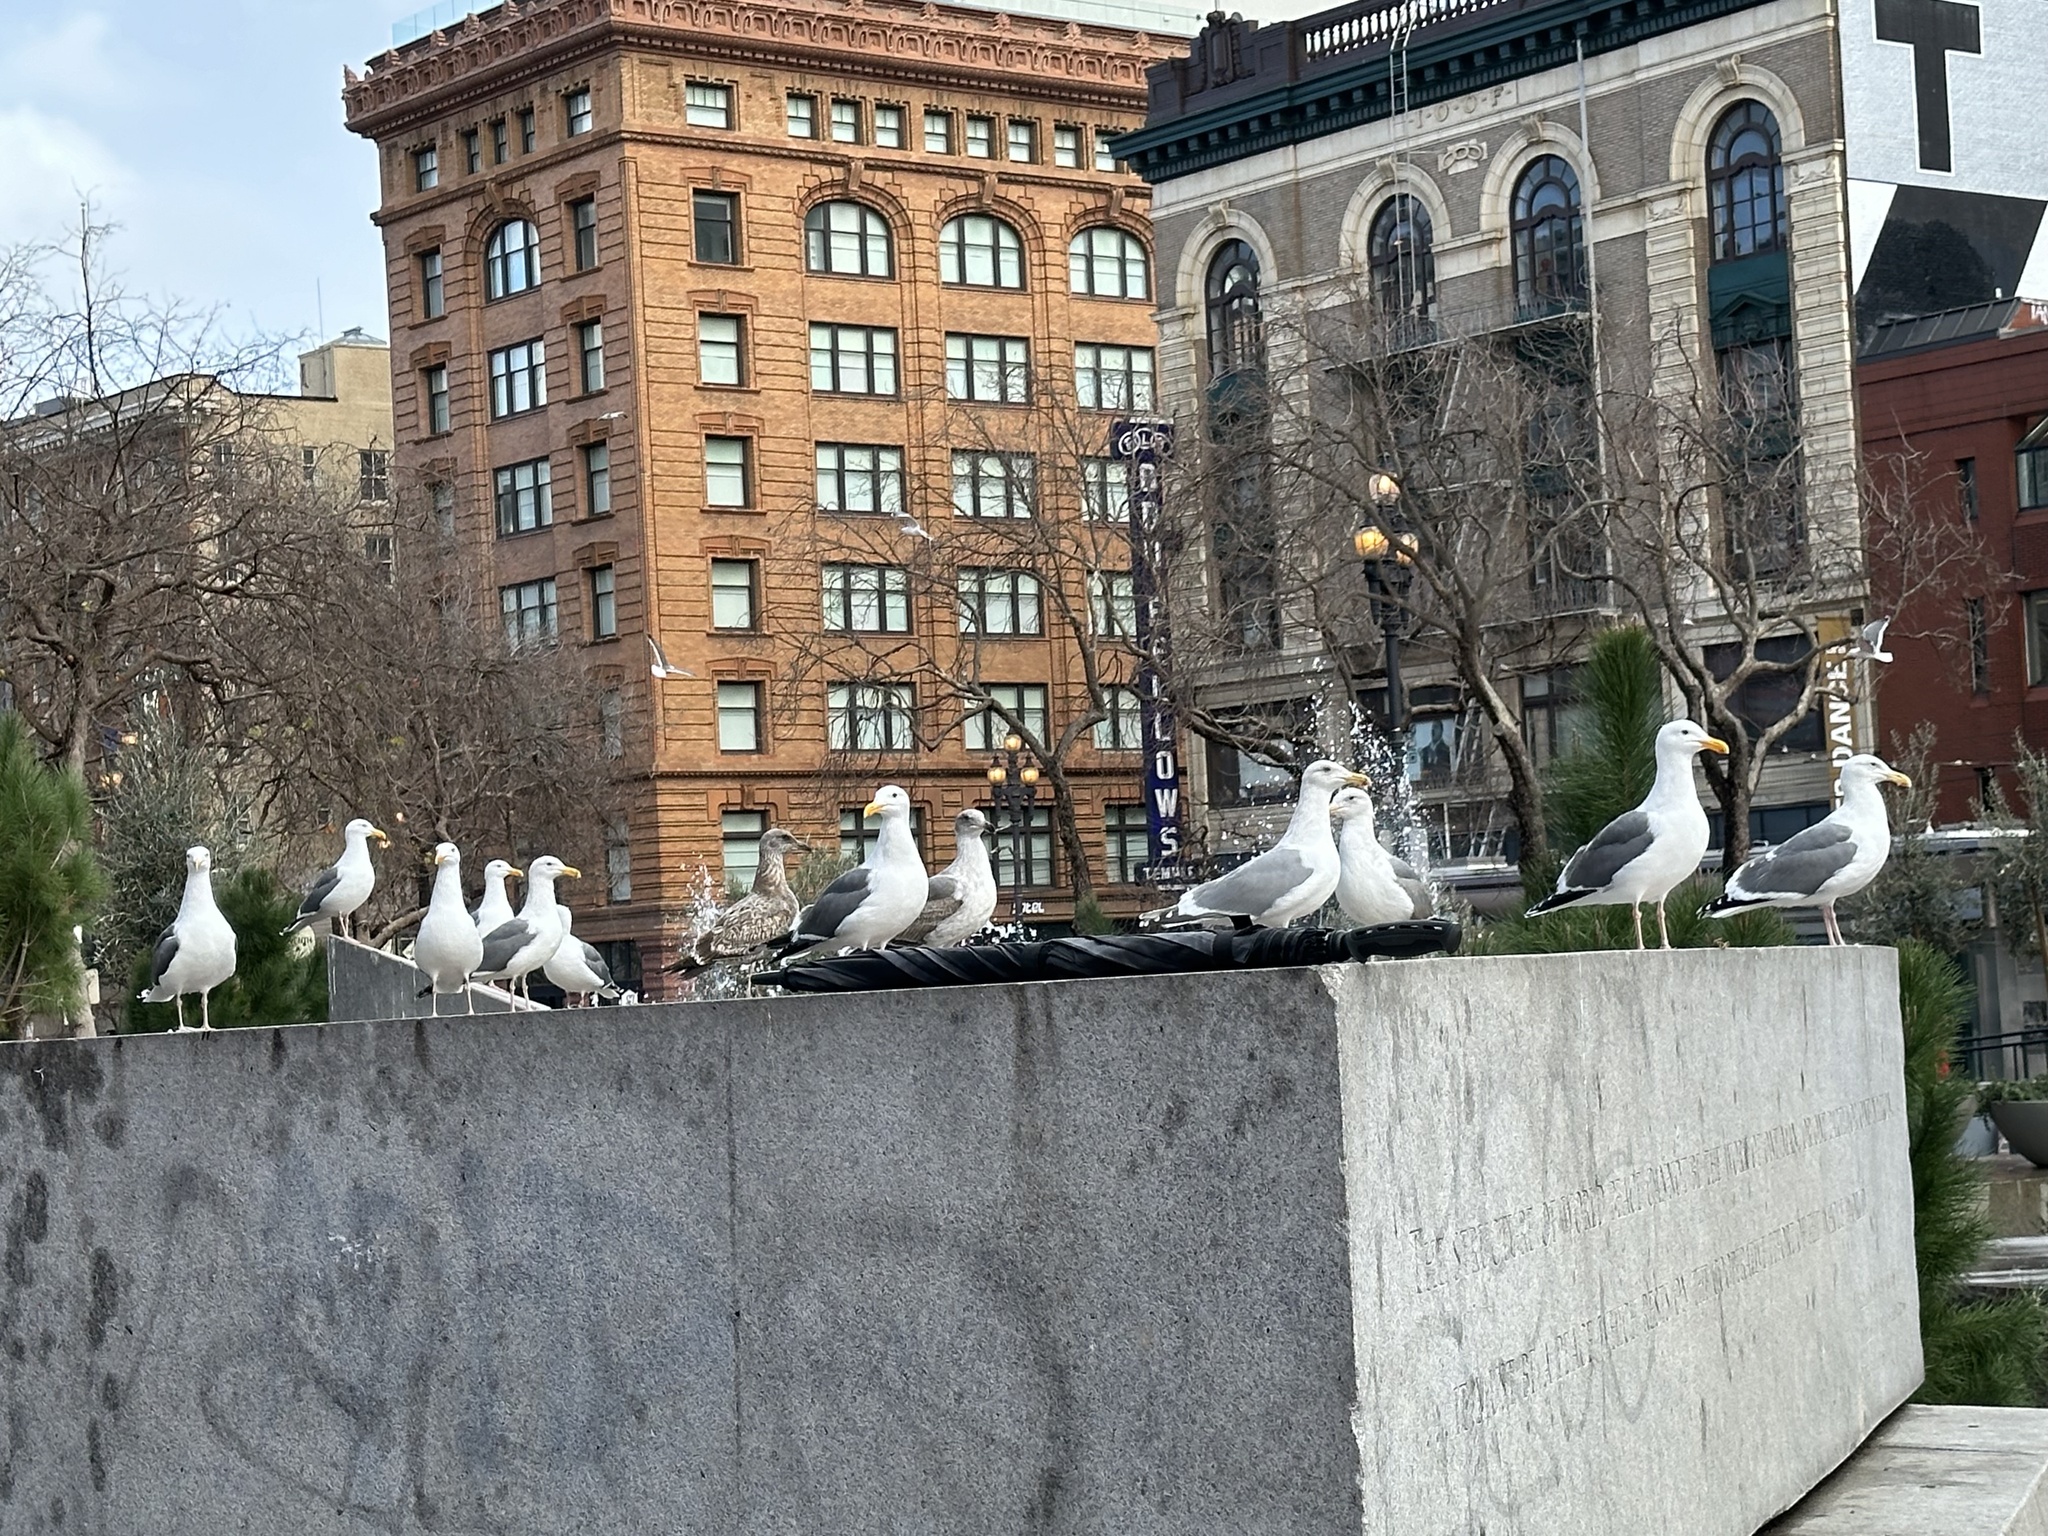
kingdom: Animalia
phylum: Chordata
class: Aves
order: Charadriiformes
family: Laridae
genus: Larus
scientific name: Larus
